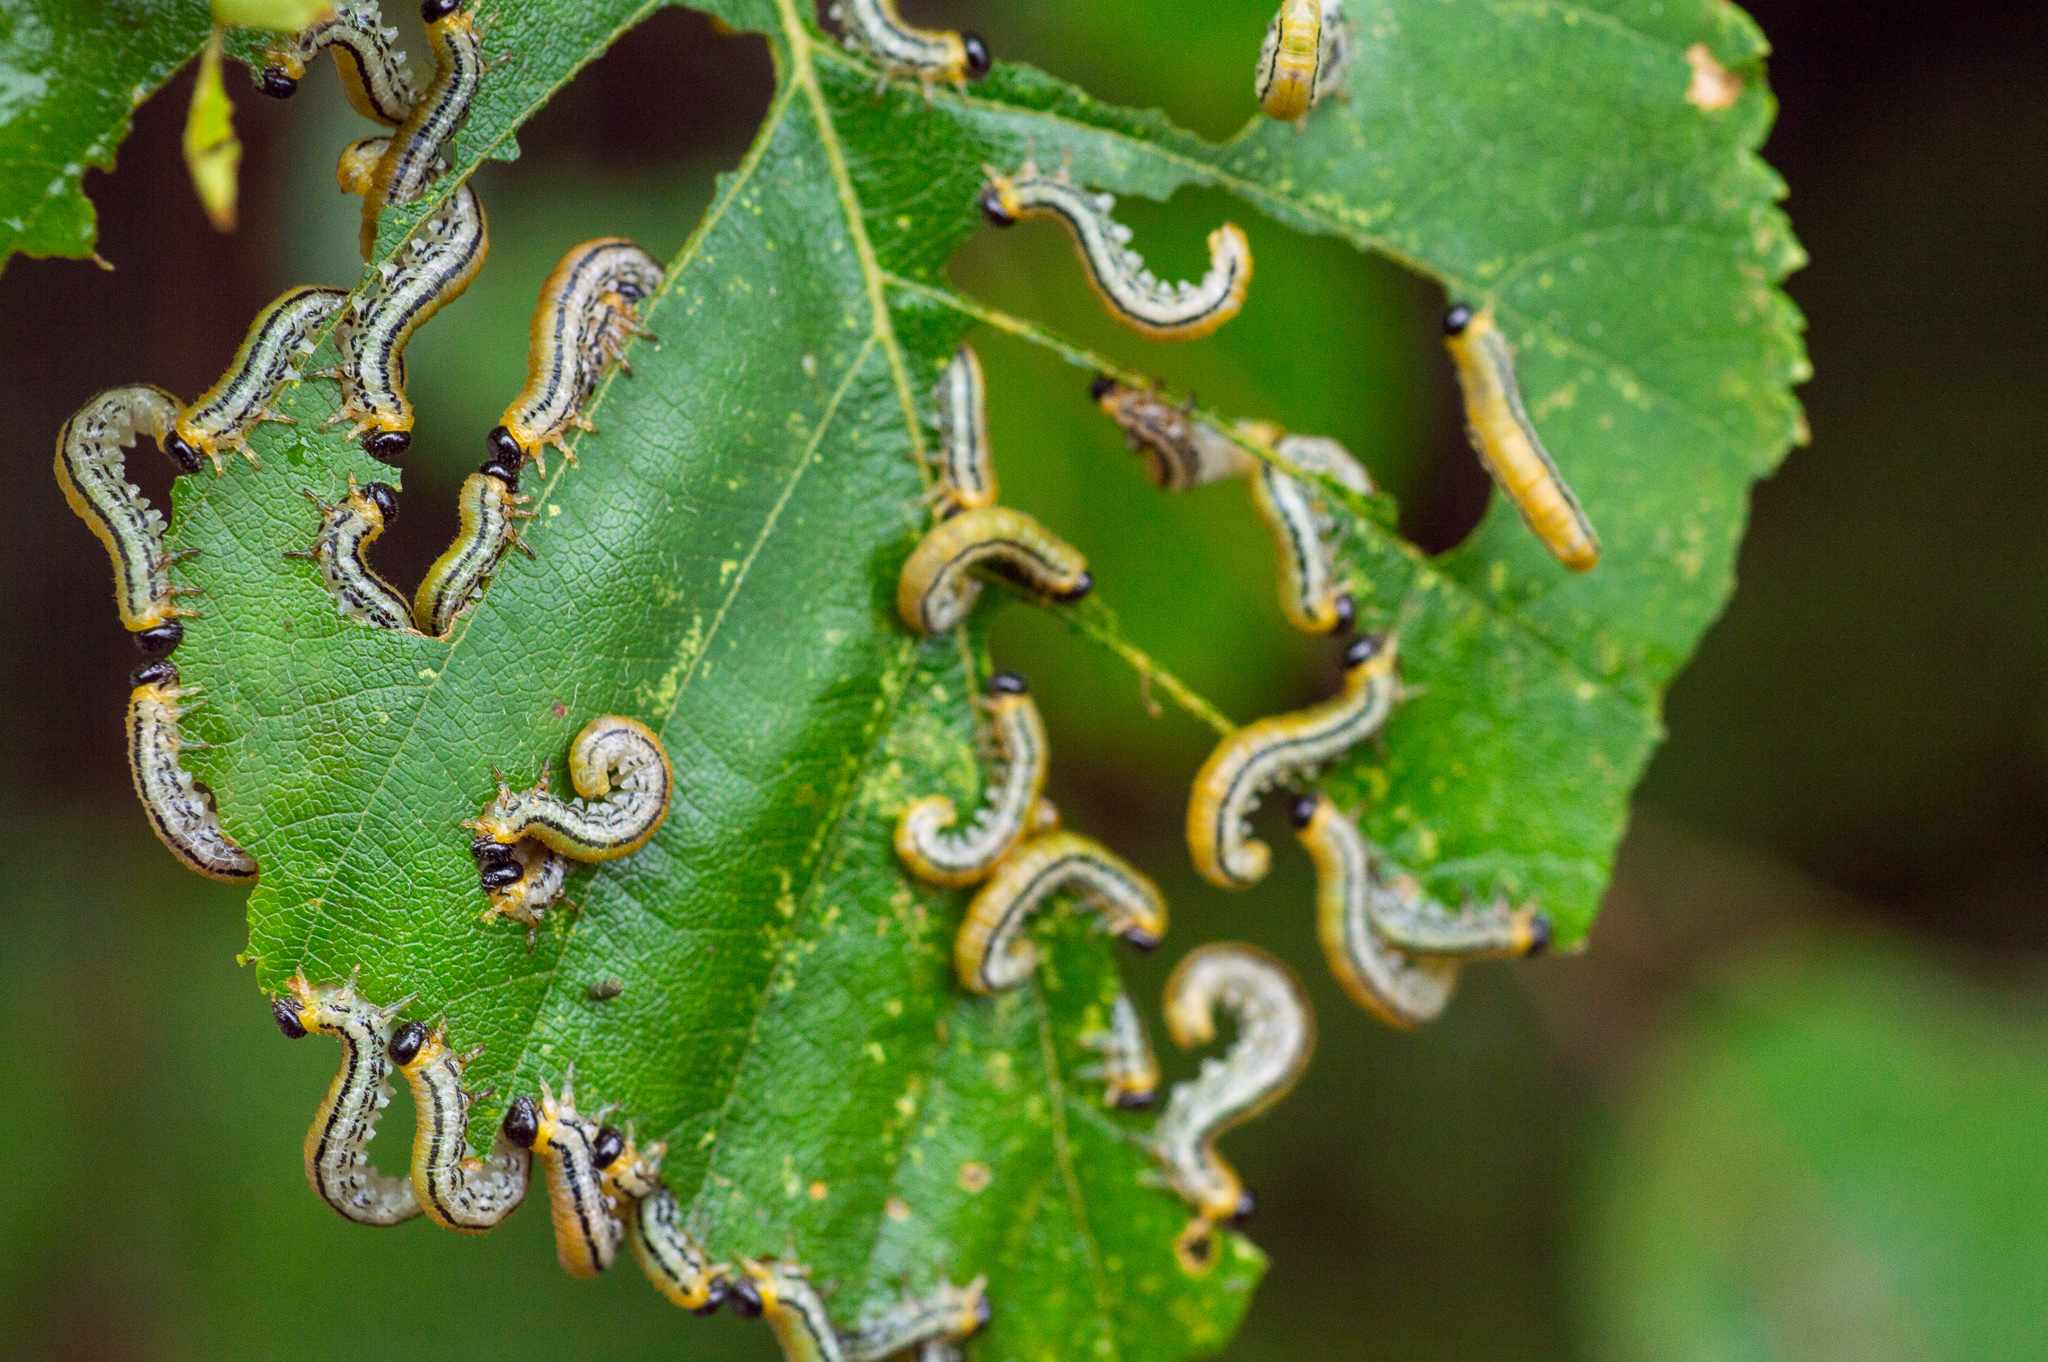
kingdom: Animalia
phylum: Arthropoda
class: Insecta
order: Hymenoptera
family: Tenthredinidae
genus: Hemichroa
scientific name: Hemichroa crocea
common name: Striped alder sawfly
